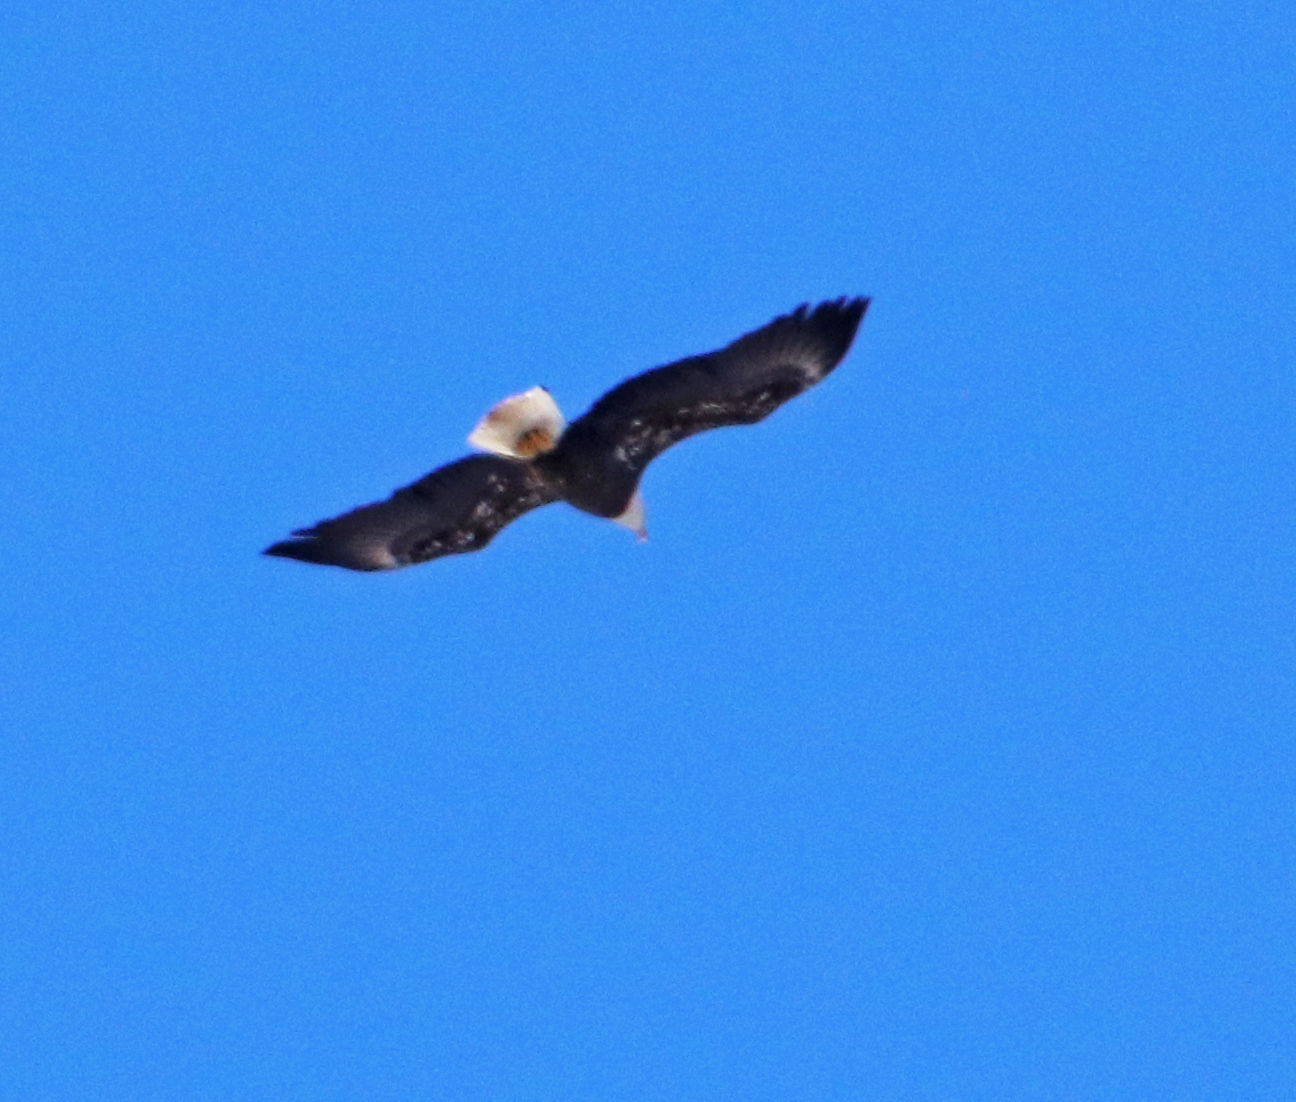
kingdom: Animalia
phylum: Chordata
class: Aves
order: Accipitriformes
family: Accipitridae
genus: Haliaeetus
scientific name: Haliaeetus leucocephalus
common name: Bald eagle
